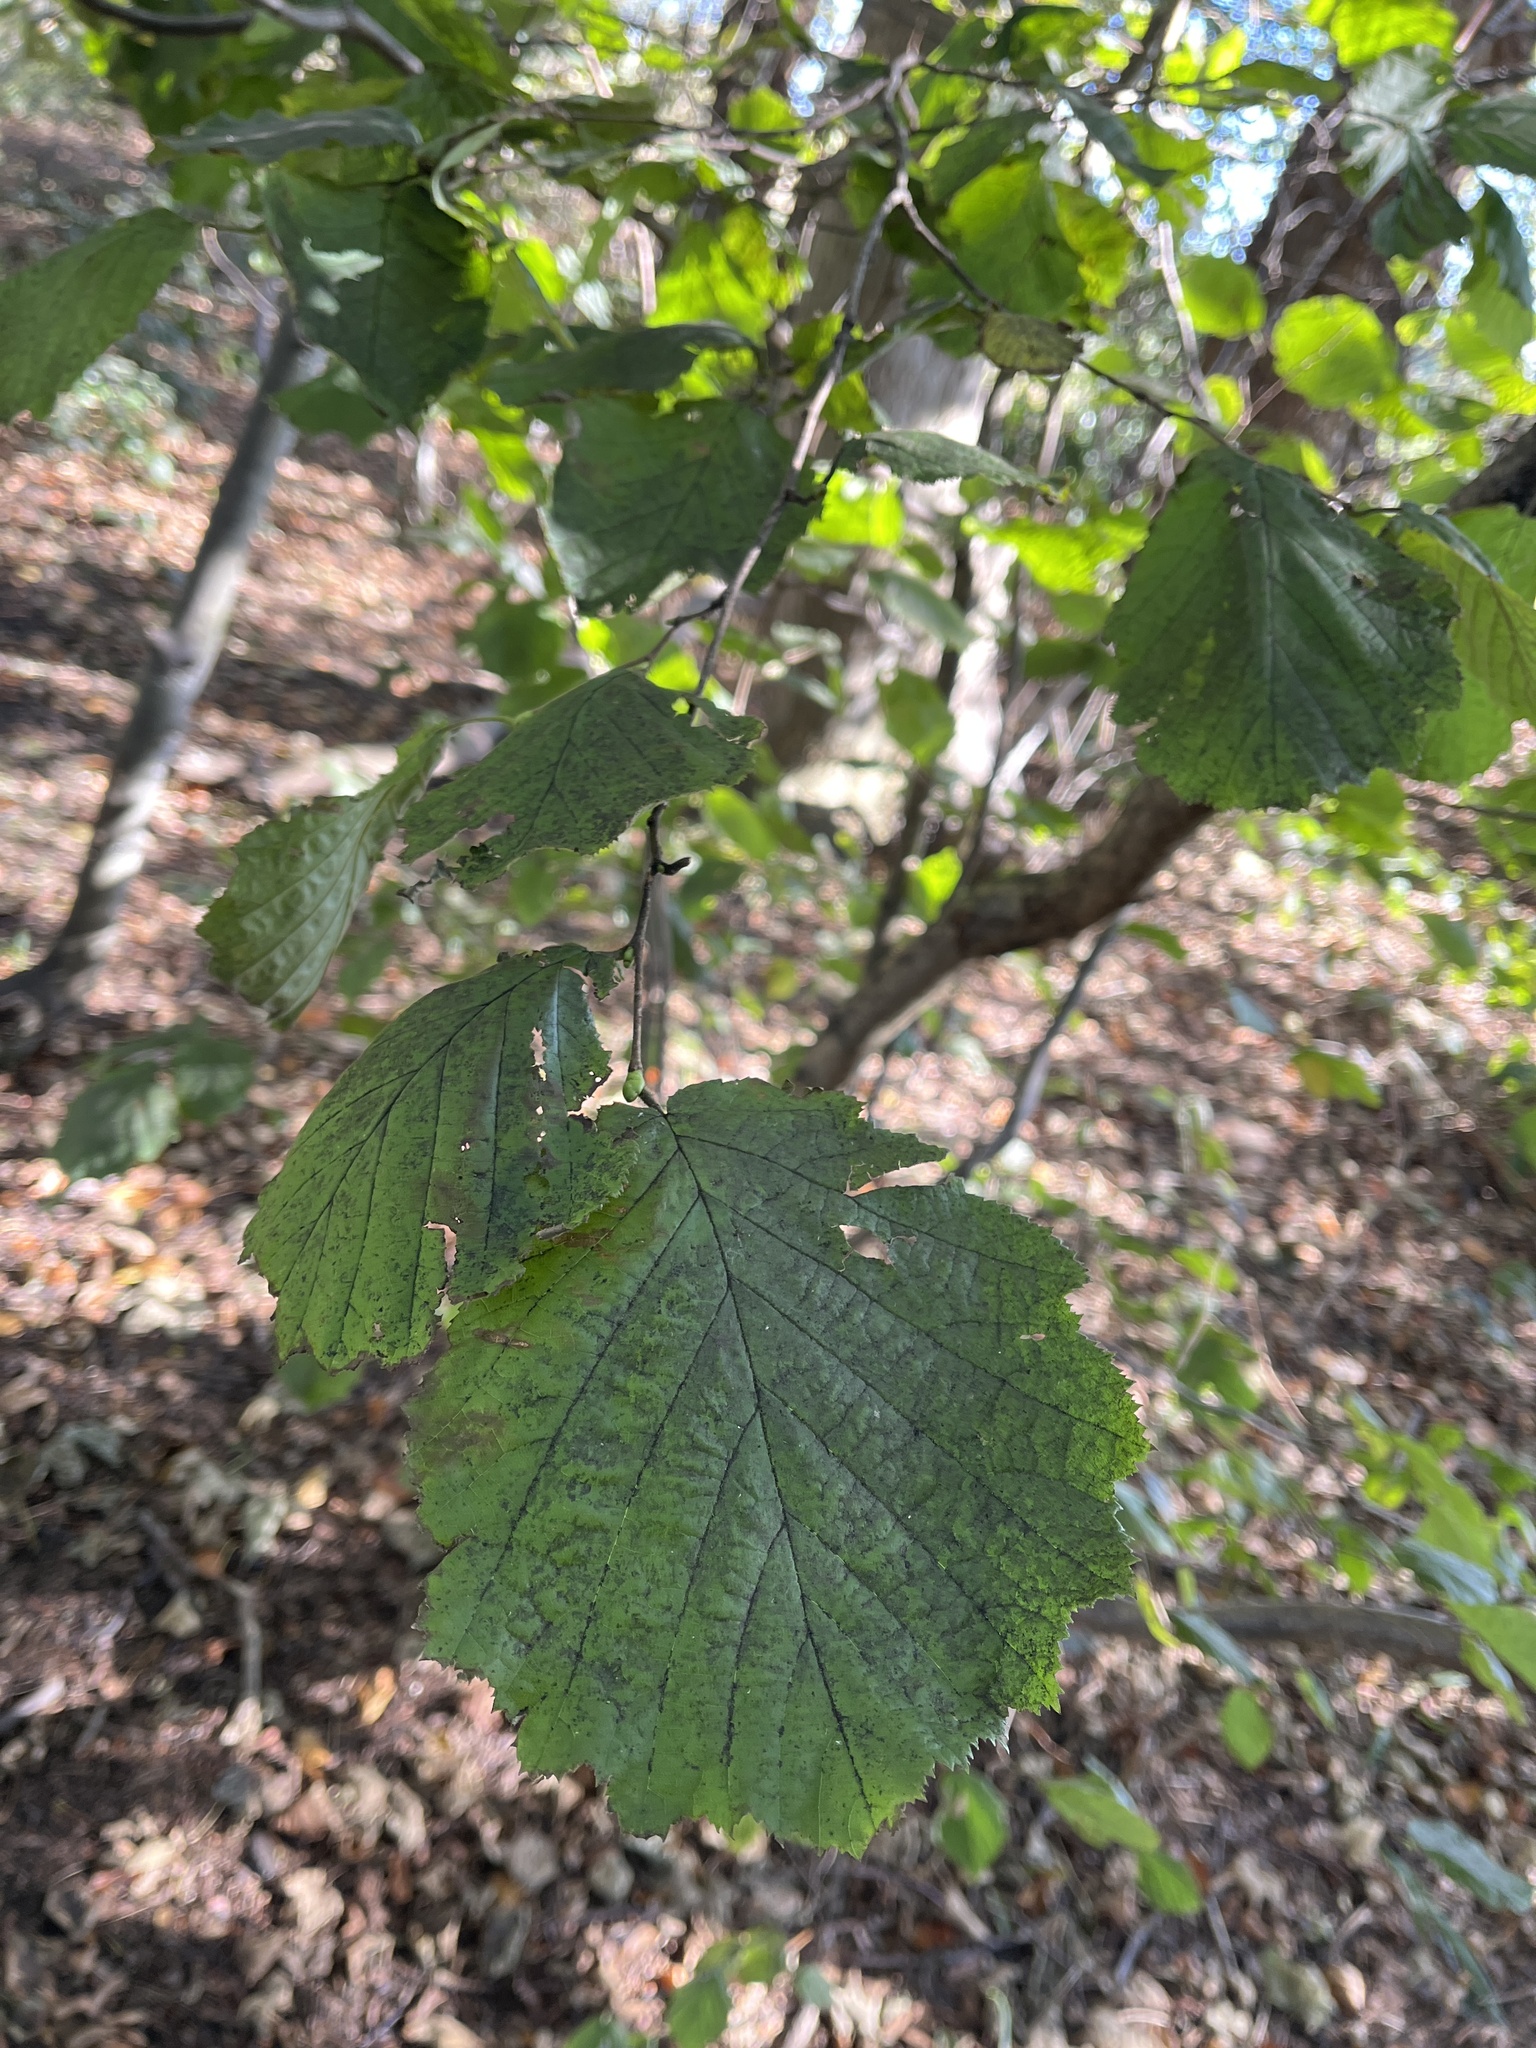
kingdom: Plantae
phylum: Tracheophyta
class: Magnoliopsida
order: Fagales
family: Betulaceae
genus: Corylus
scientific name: Corylus avellana
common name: European hazel
